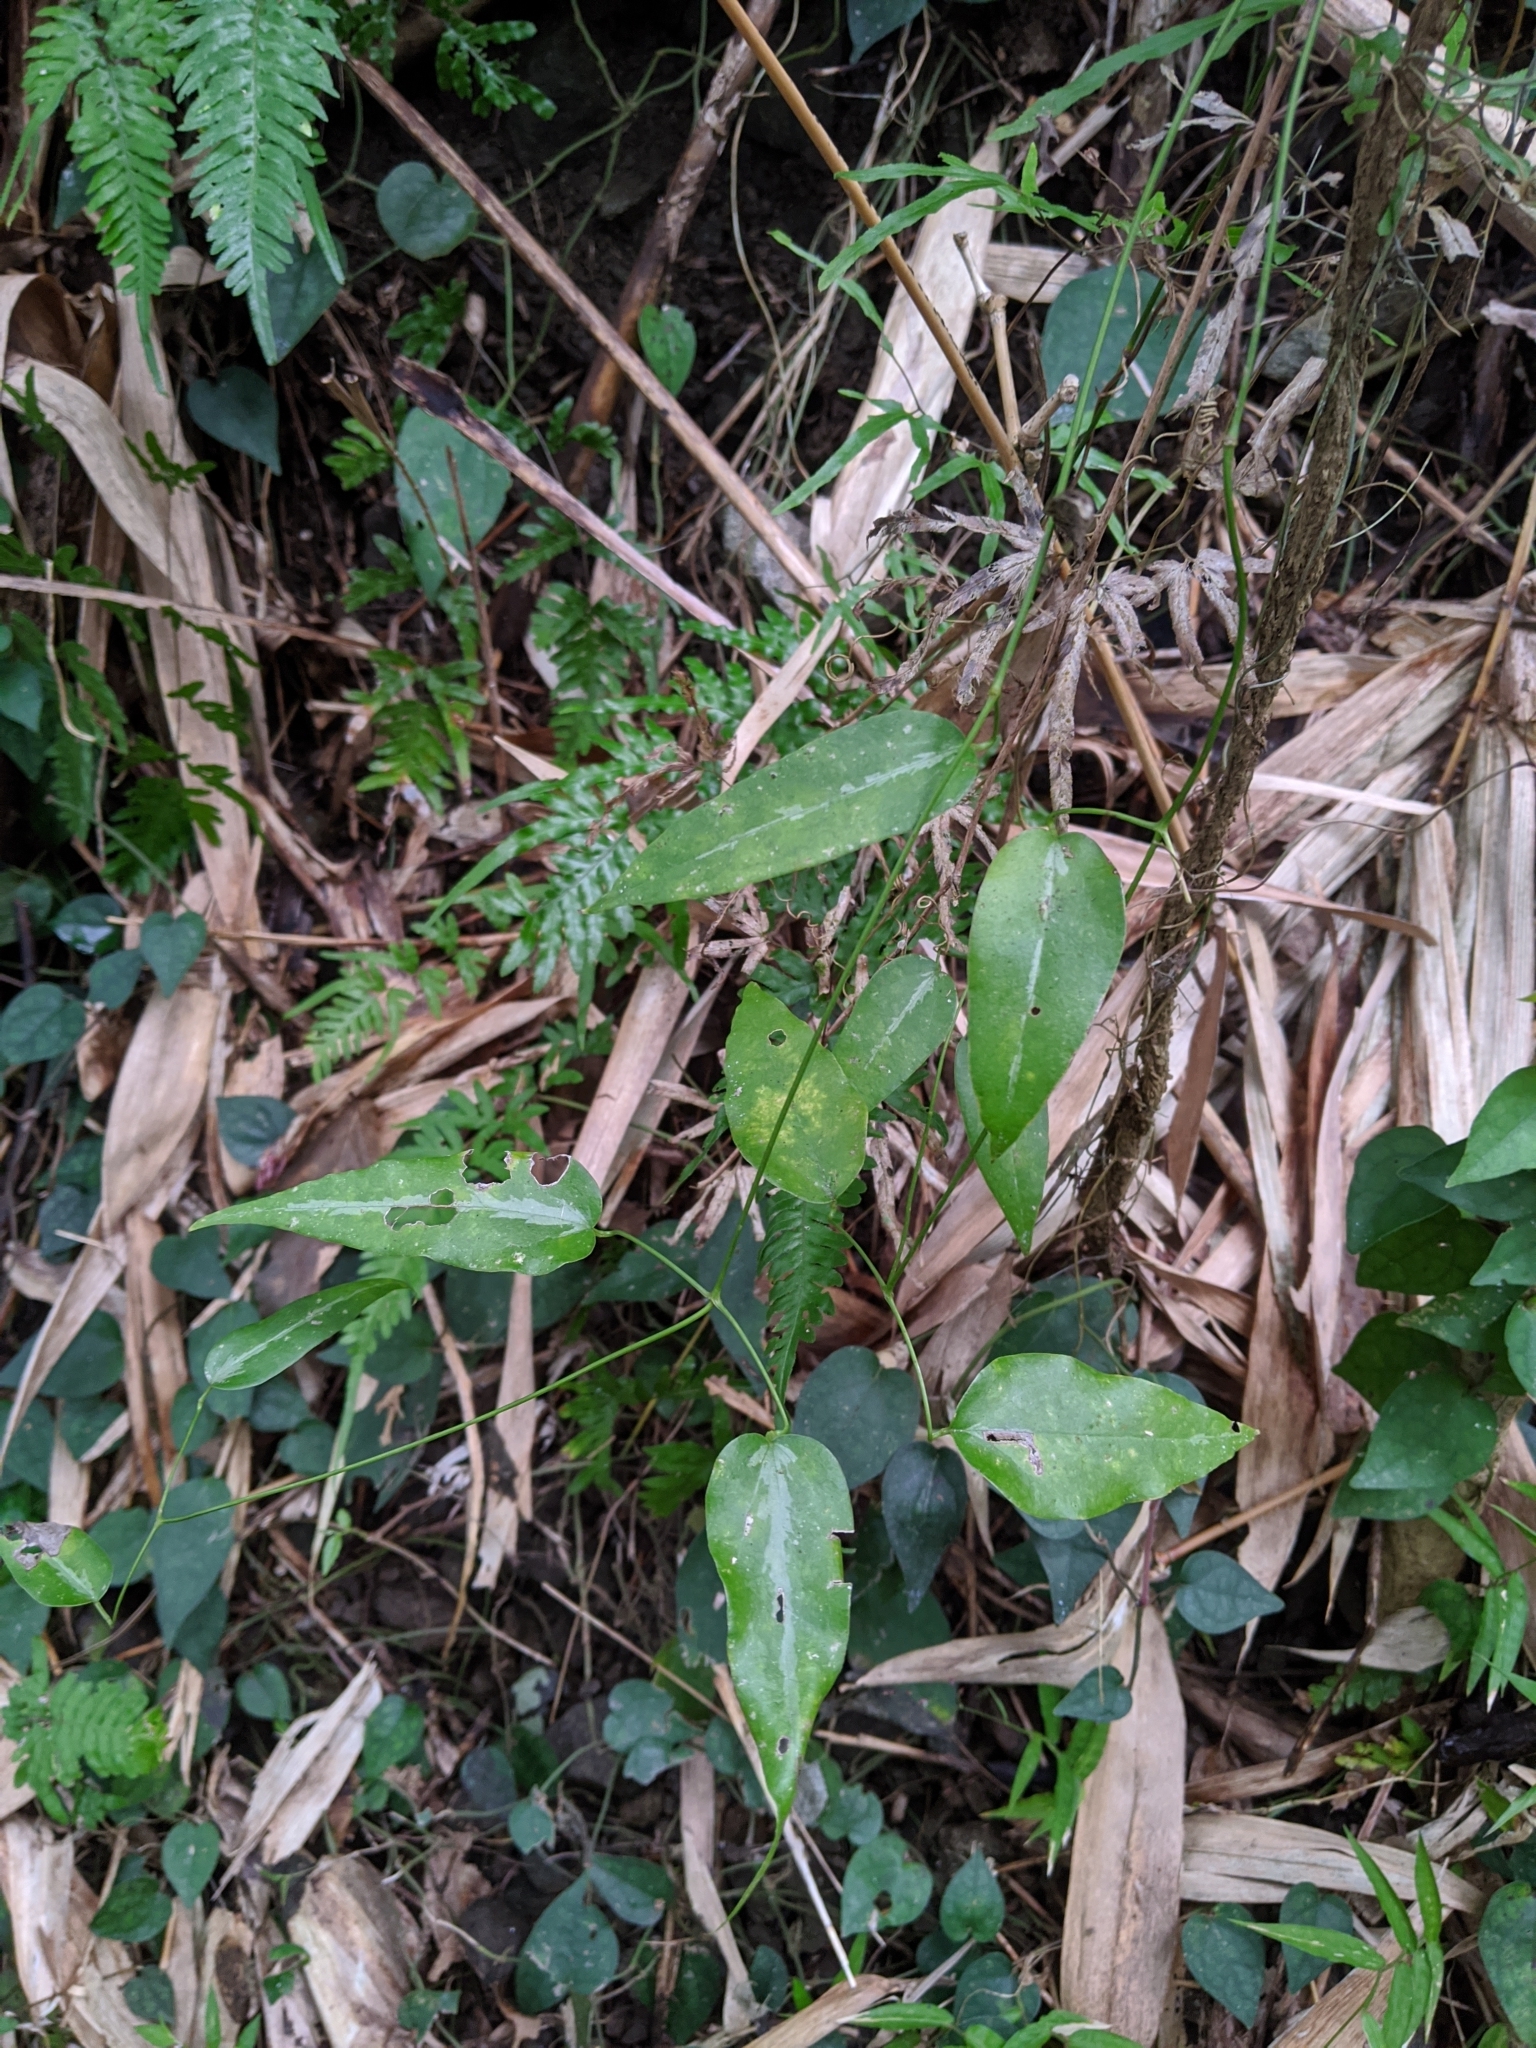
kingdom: Plantae
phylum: Tracheophyta
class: Magnoliopsida
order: Ranunculales
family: Ranunculaceae
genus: Clematis
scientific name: Clematis uncinata
